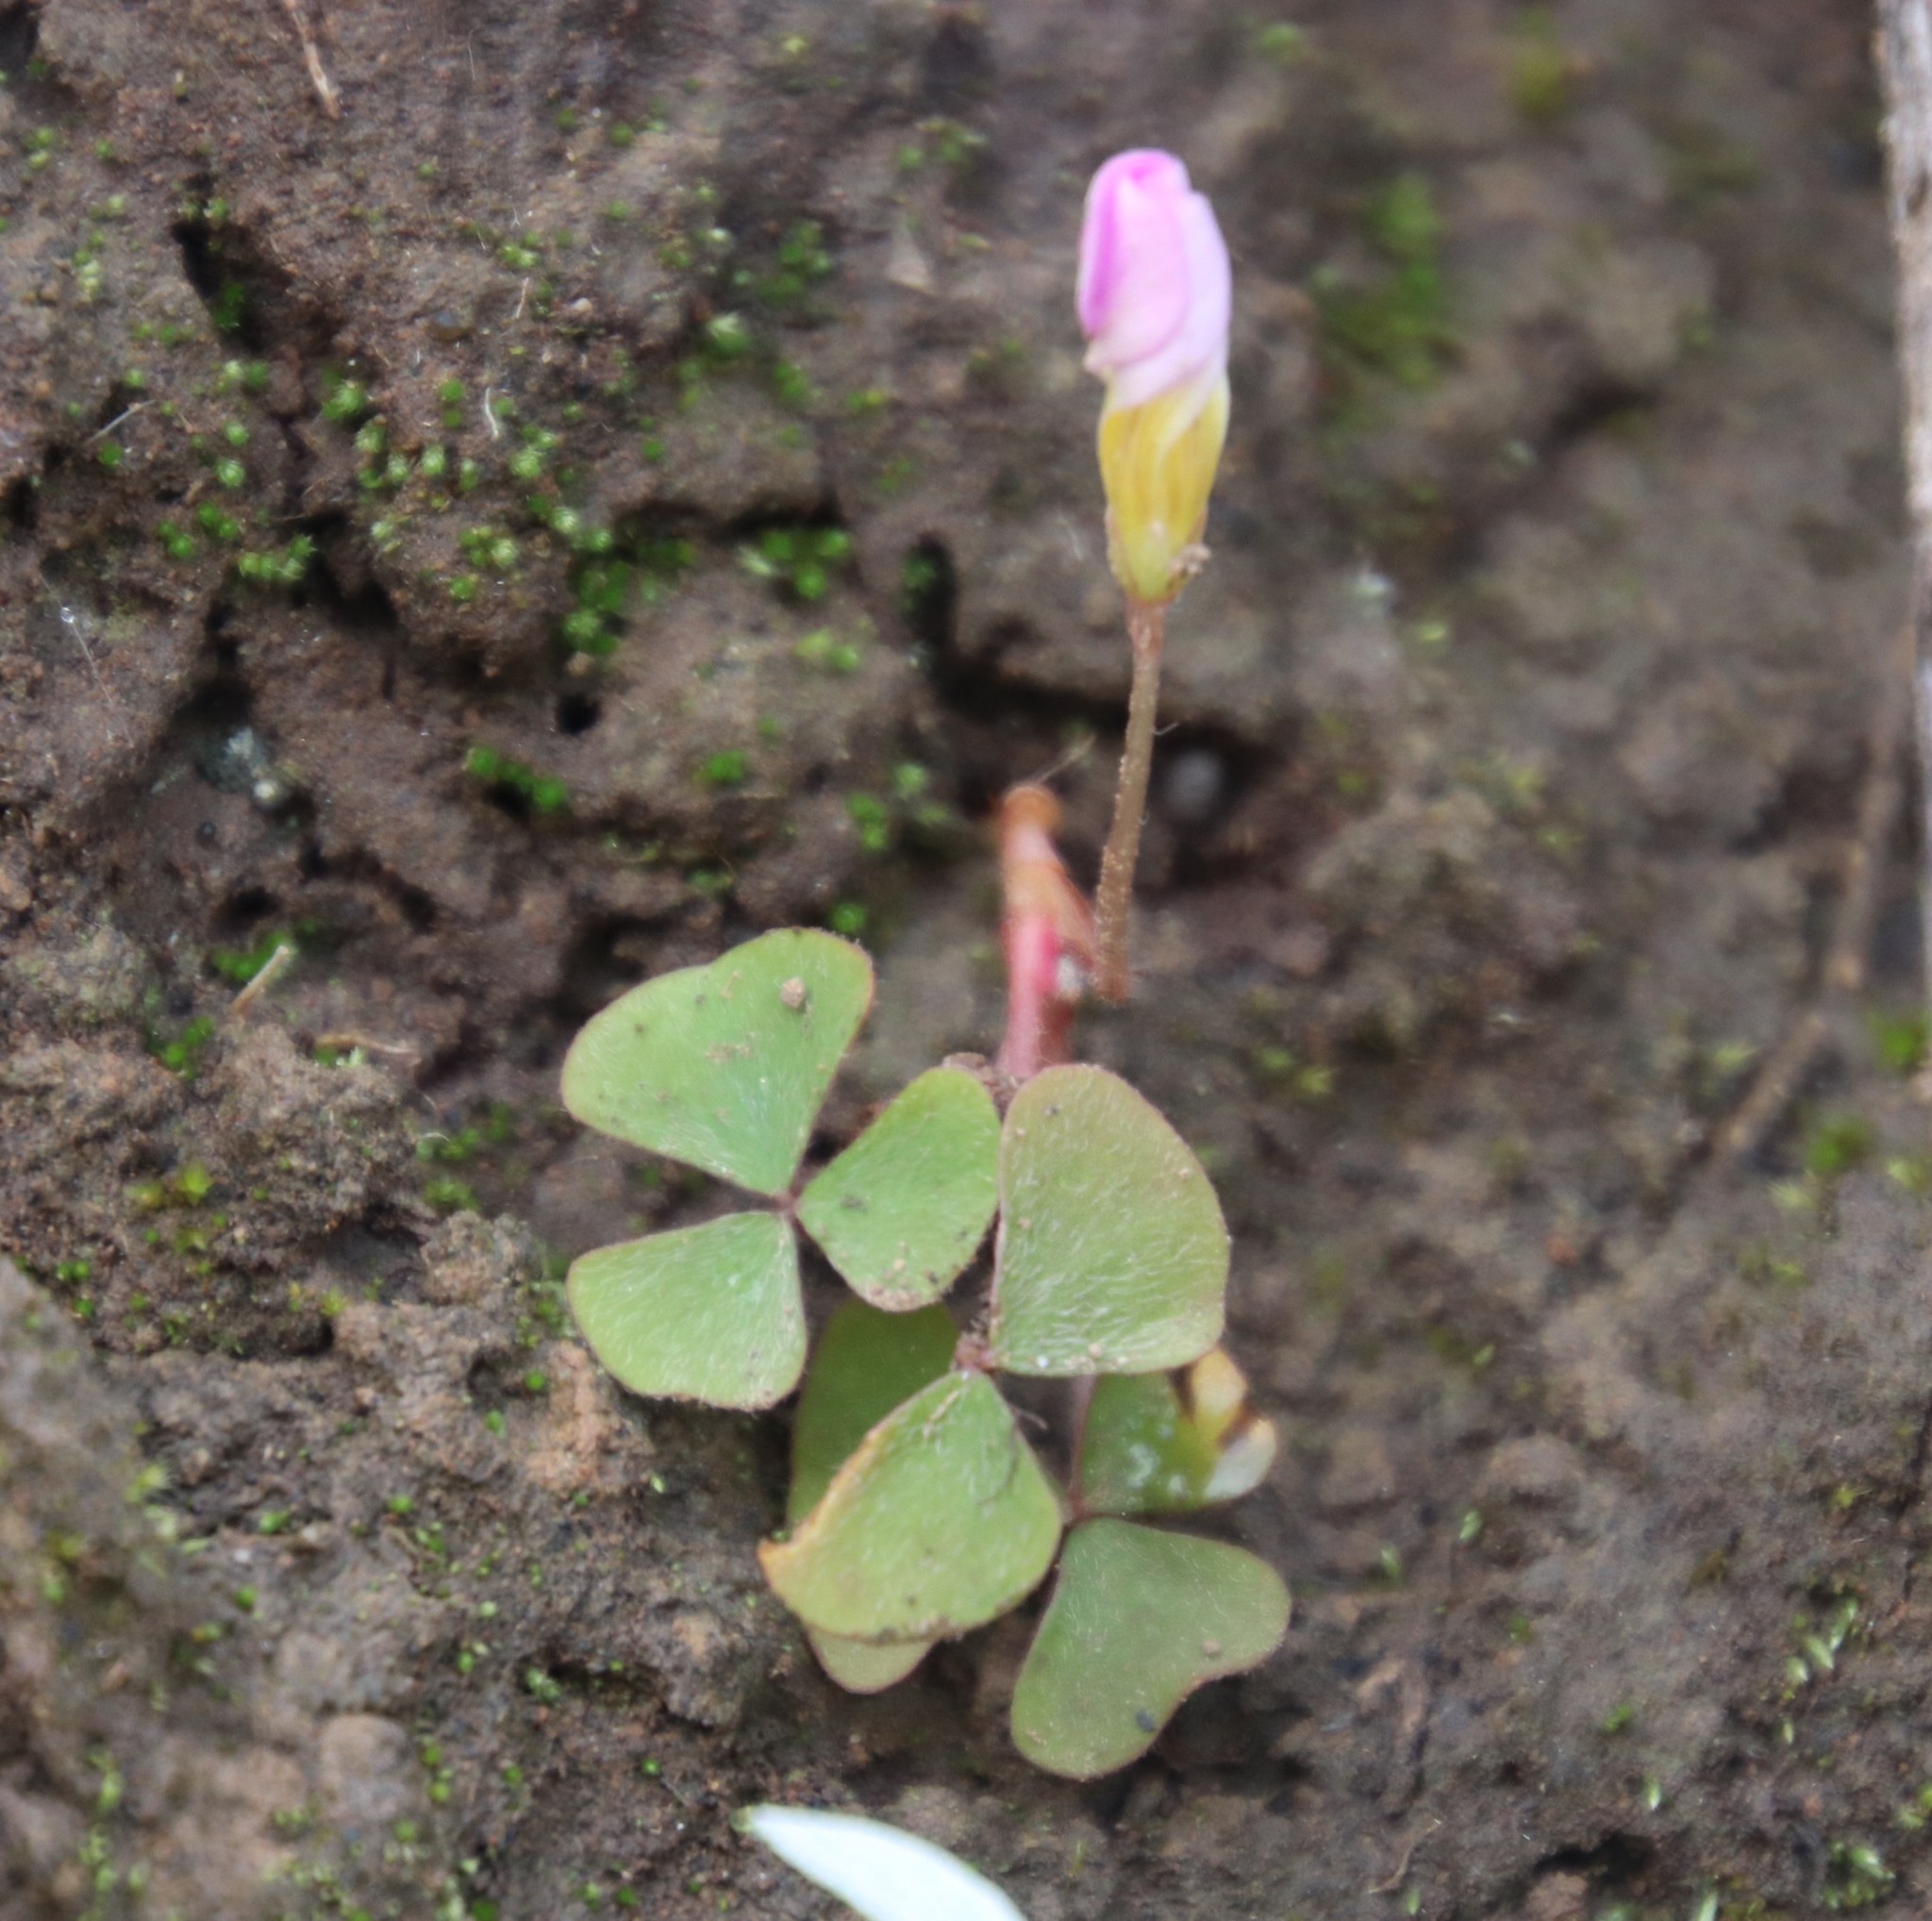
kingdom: Plantae
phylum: Tracheophyta
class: Magnoliopsida
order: Oxalidales
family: Oxalidaceae
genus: Oxalis
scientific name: Oxalis obliquifolia
